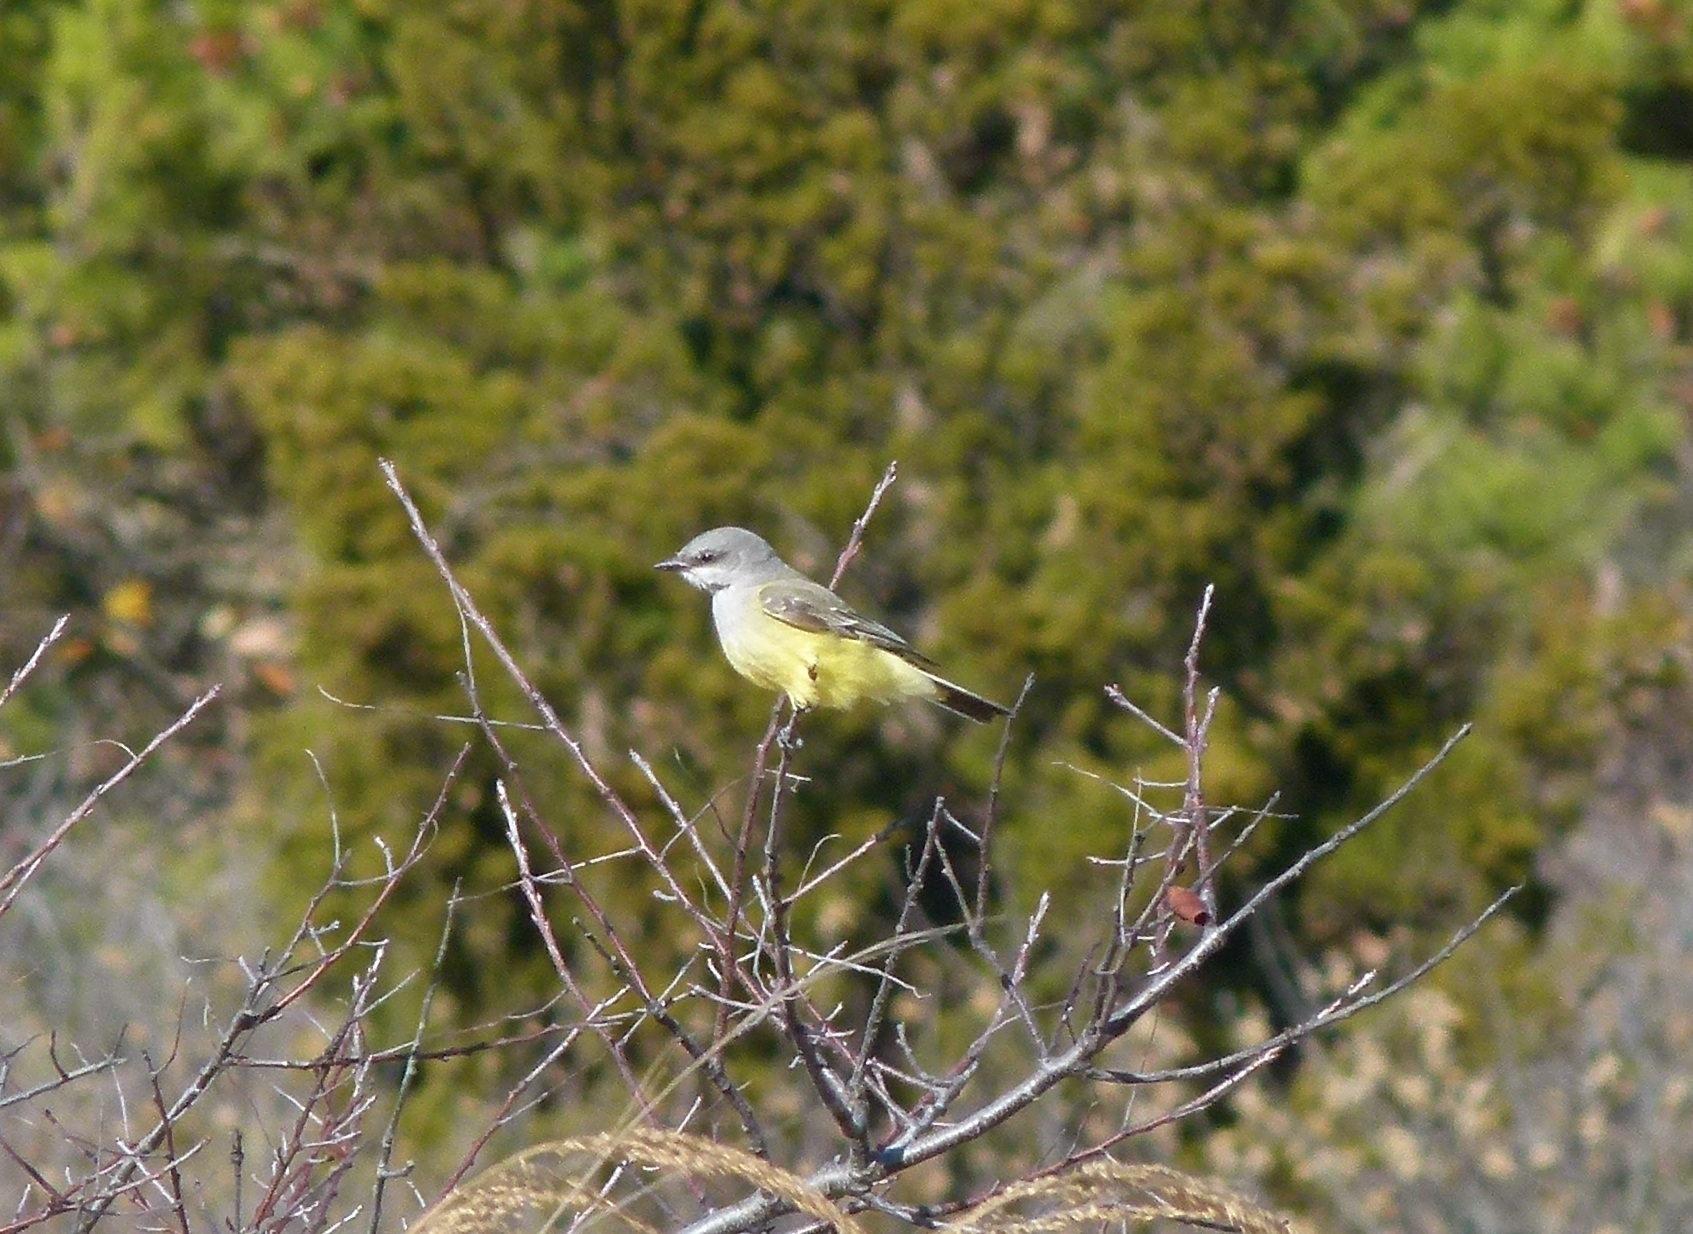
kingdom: Animalia
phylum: Chordata
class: Aves
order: Passeriformes
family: Tyrannidae
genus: Tyrannus
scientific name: Tyrannus verticalis
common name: Western kingbird
